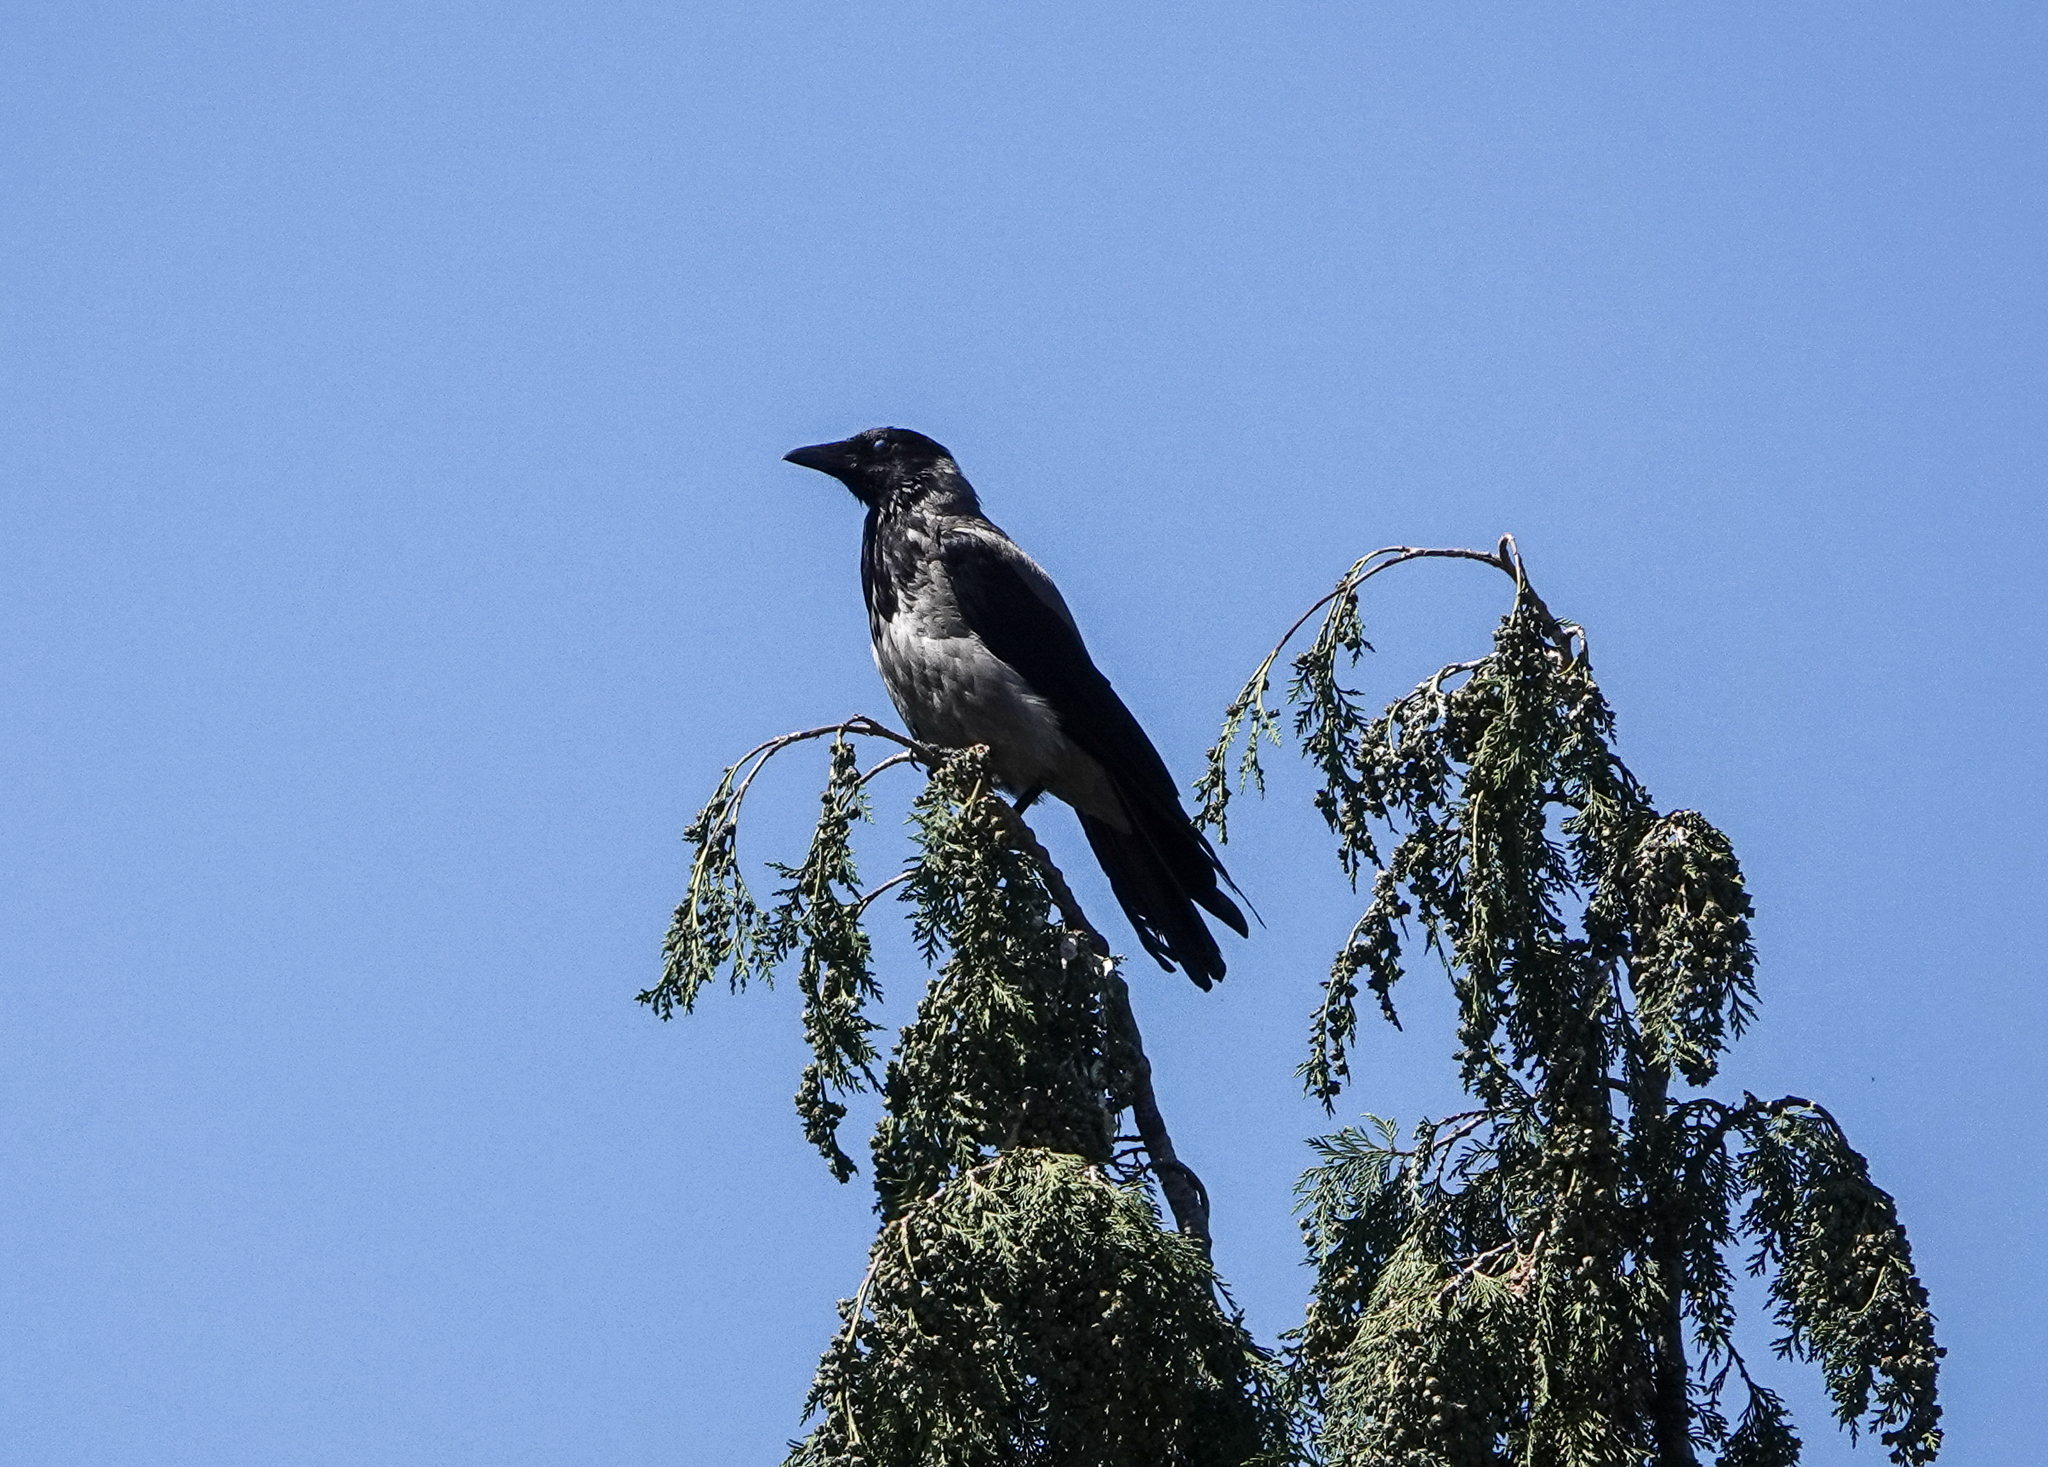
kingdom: Animalia
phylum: Chordata
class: Aves
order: Passeriformes
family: Corvidae
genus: Corvus
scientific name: Corvus cornix
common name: Hooded crow
